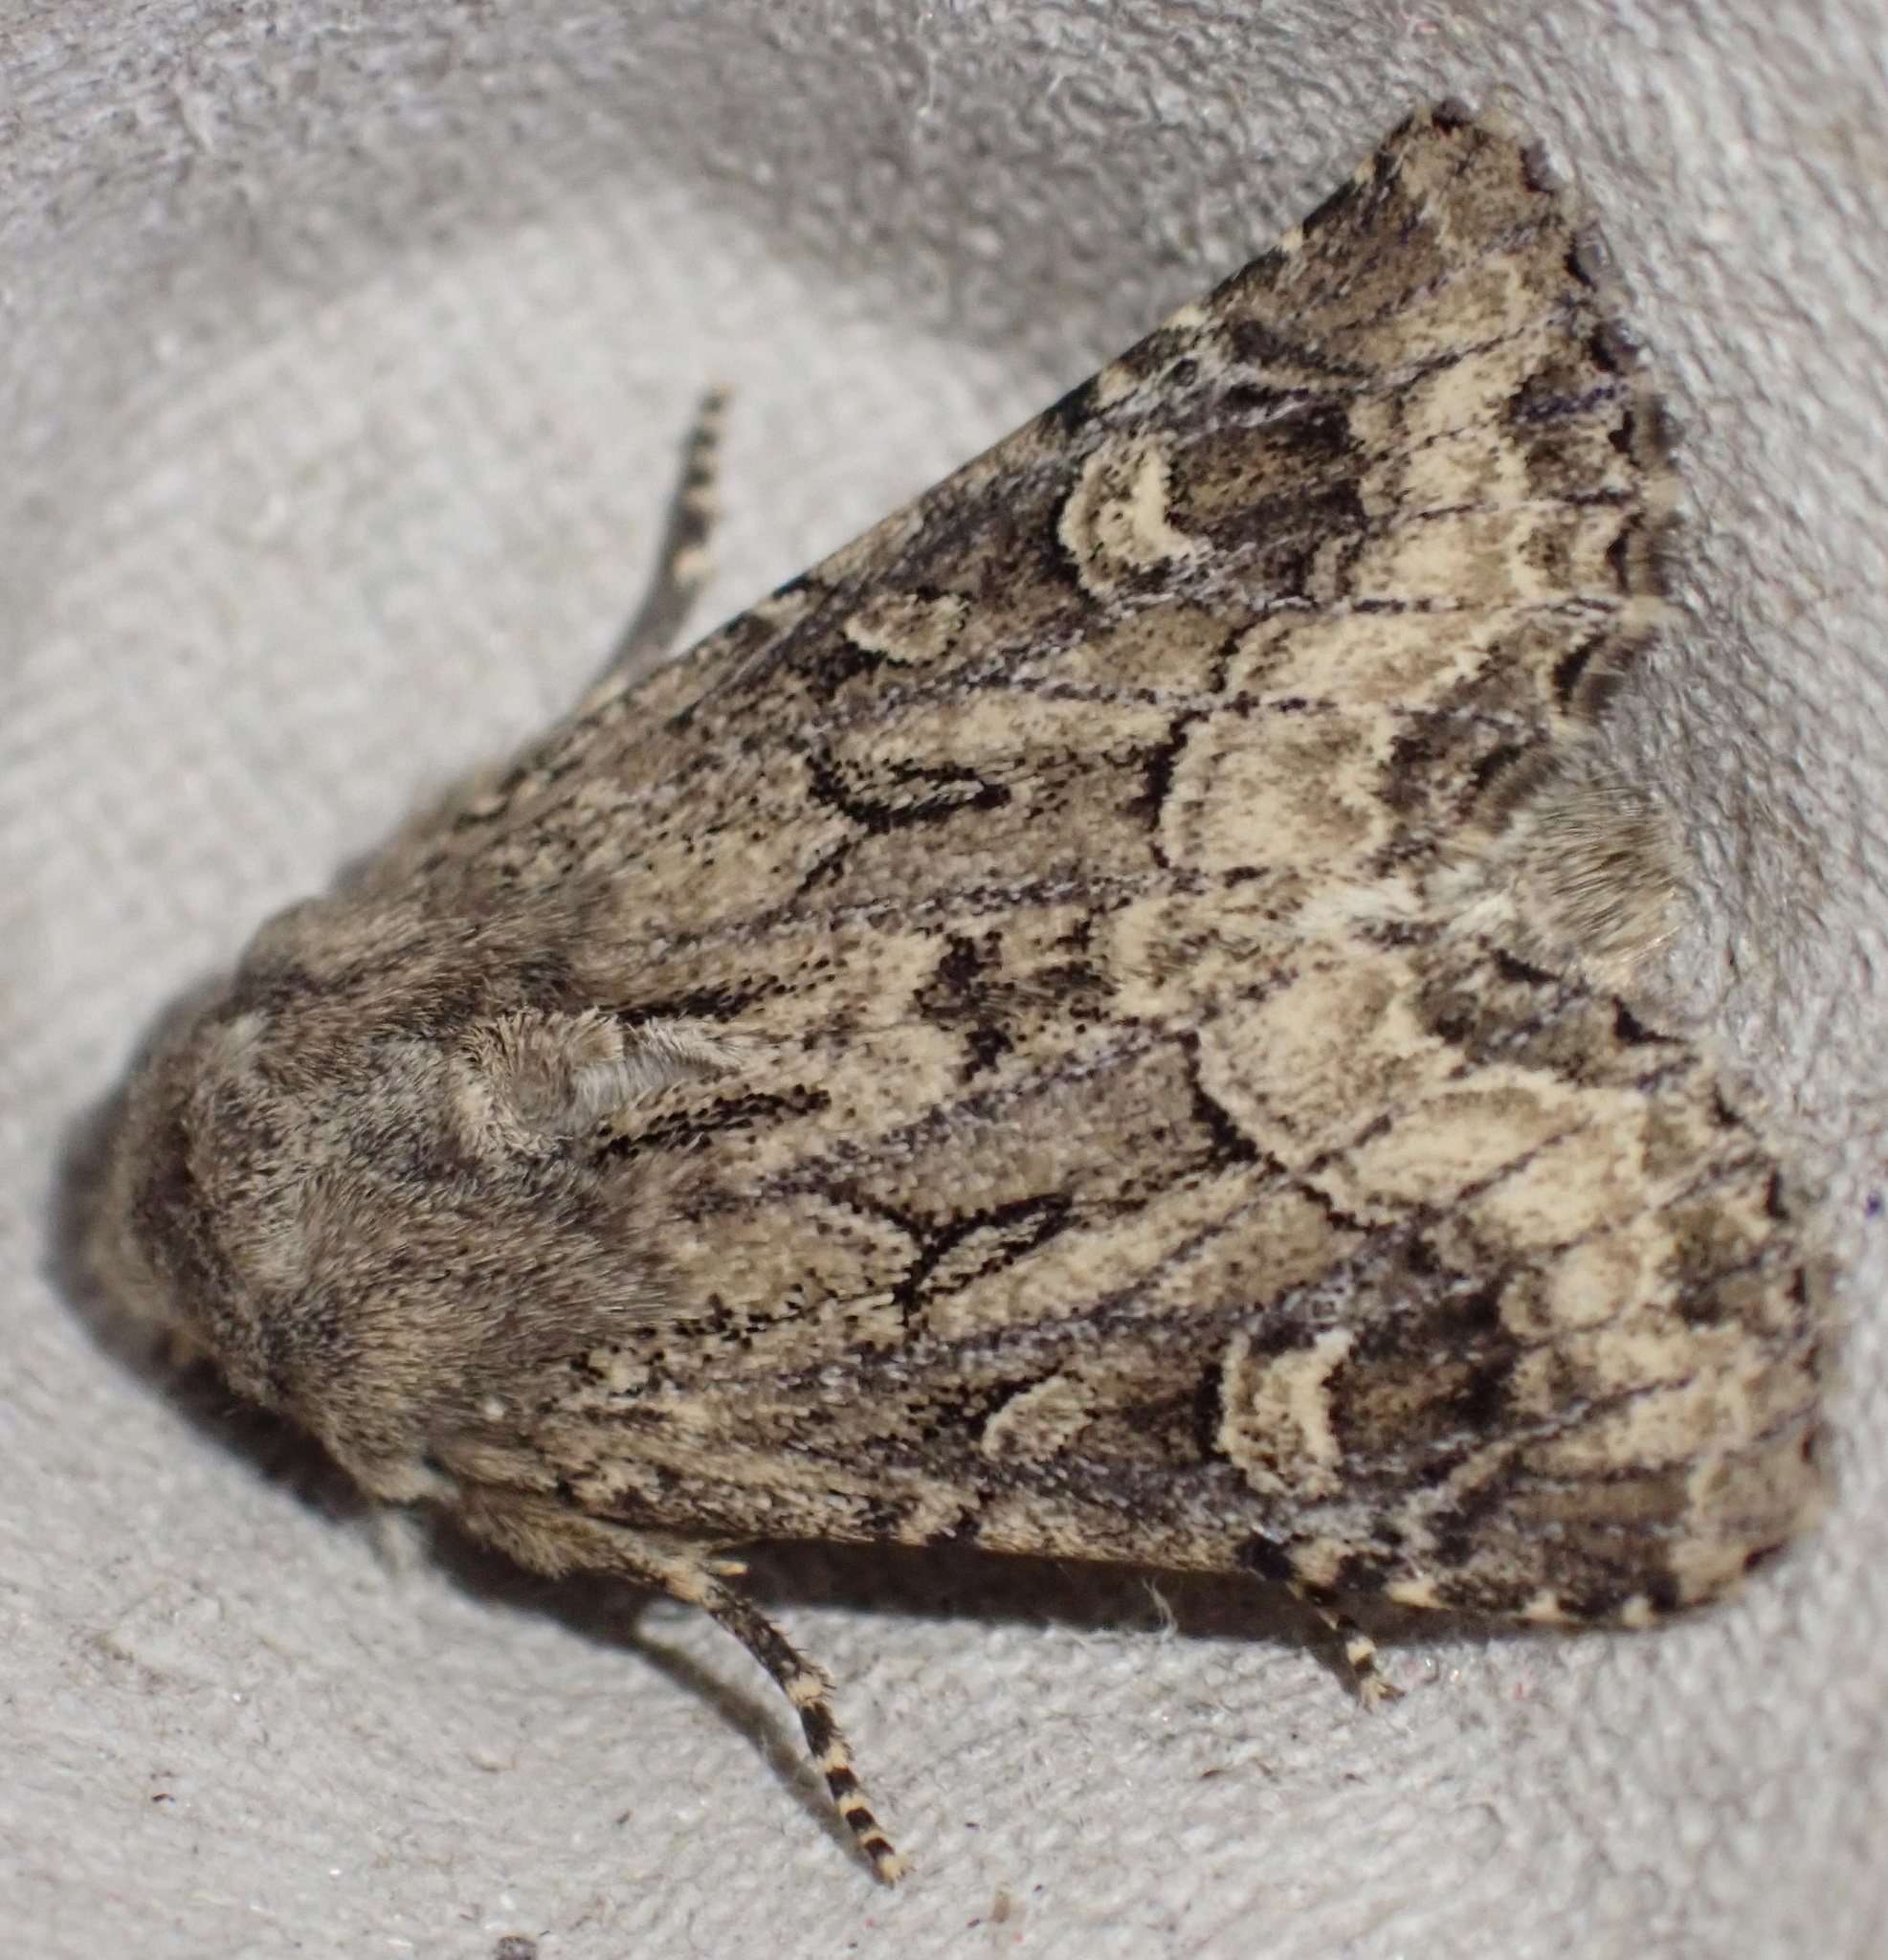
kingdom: Animalia
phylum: Arthropoda
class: Insecta
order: Lepidoptera
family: Noctuidae
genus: Luperina
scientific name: Luperina testacea
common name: Flounced rustic
